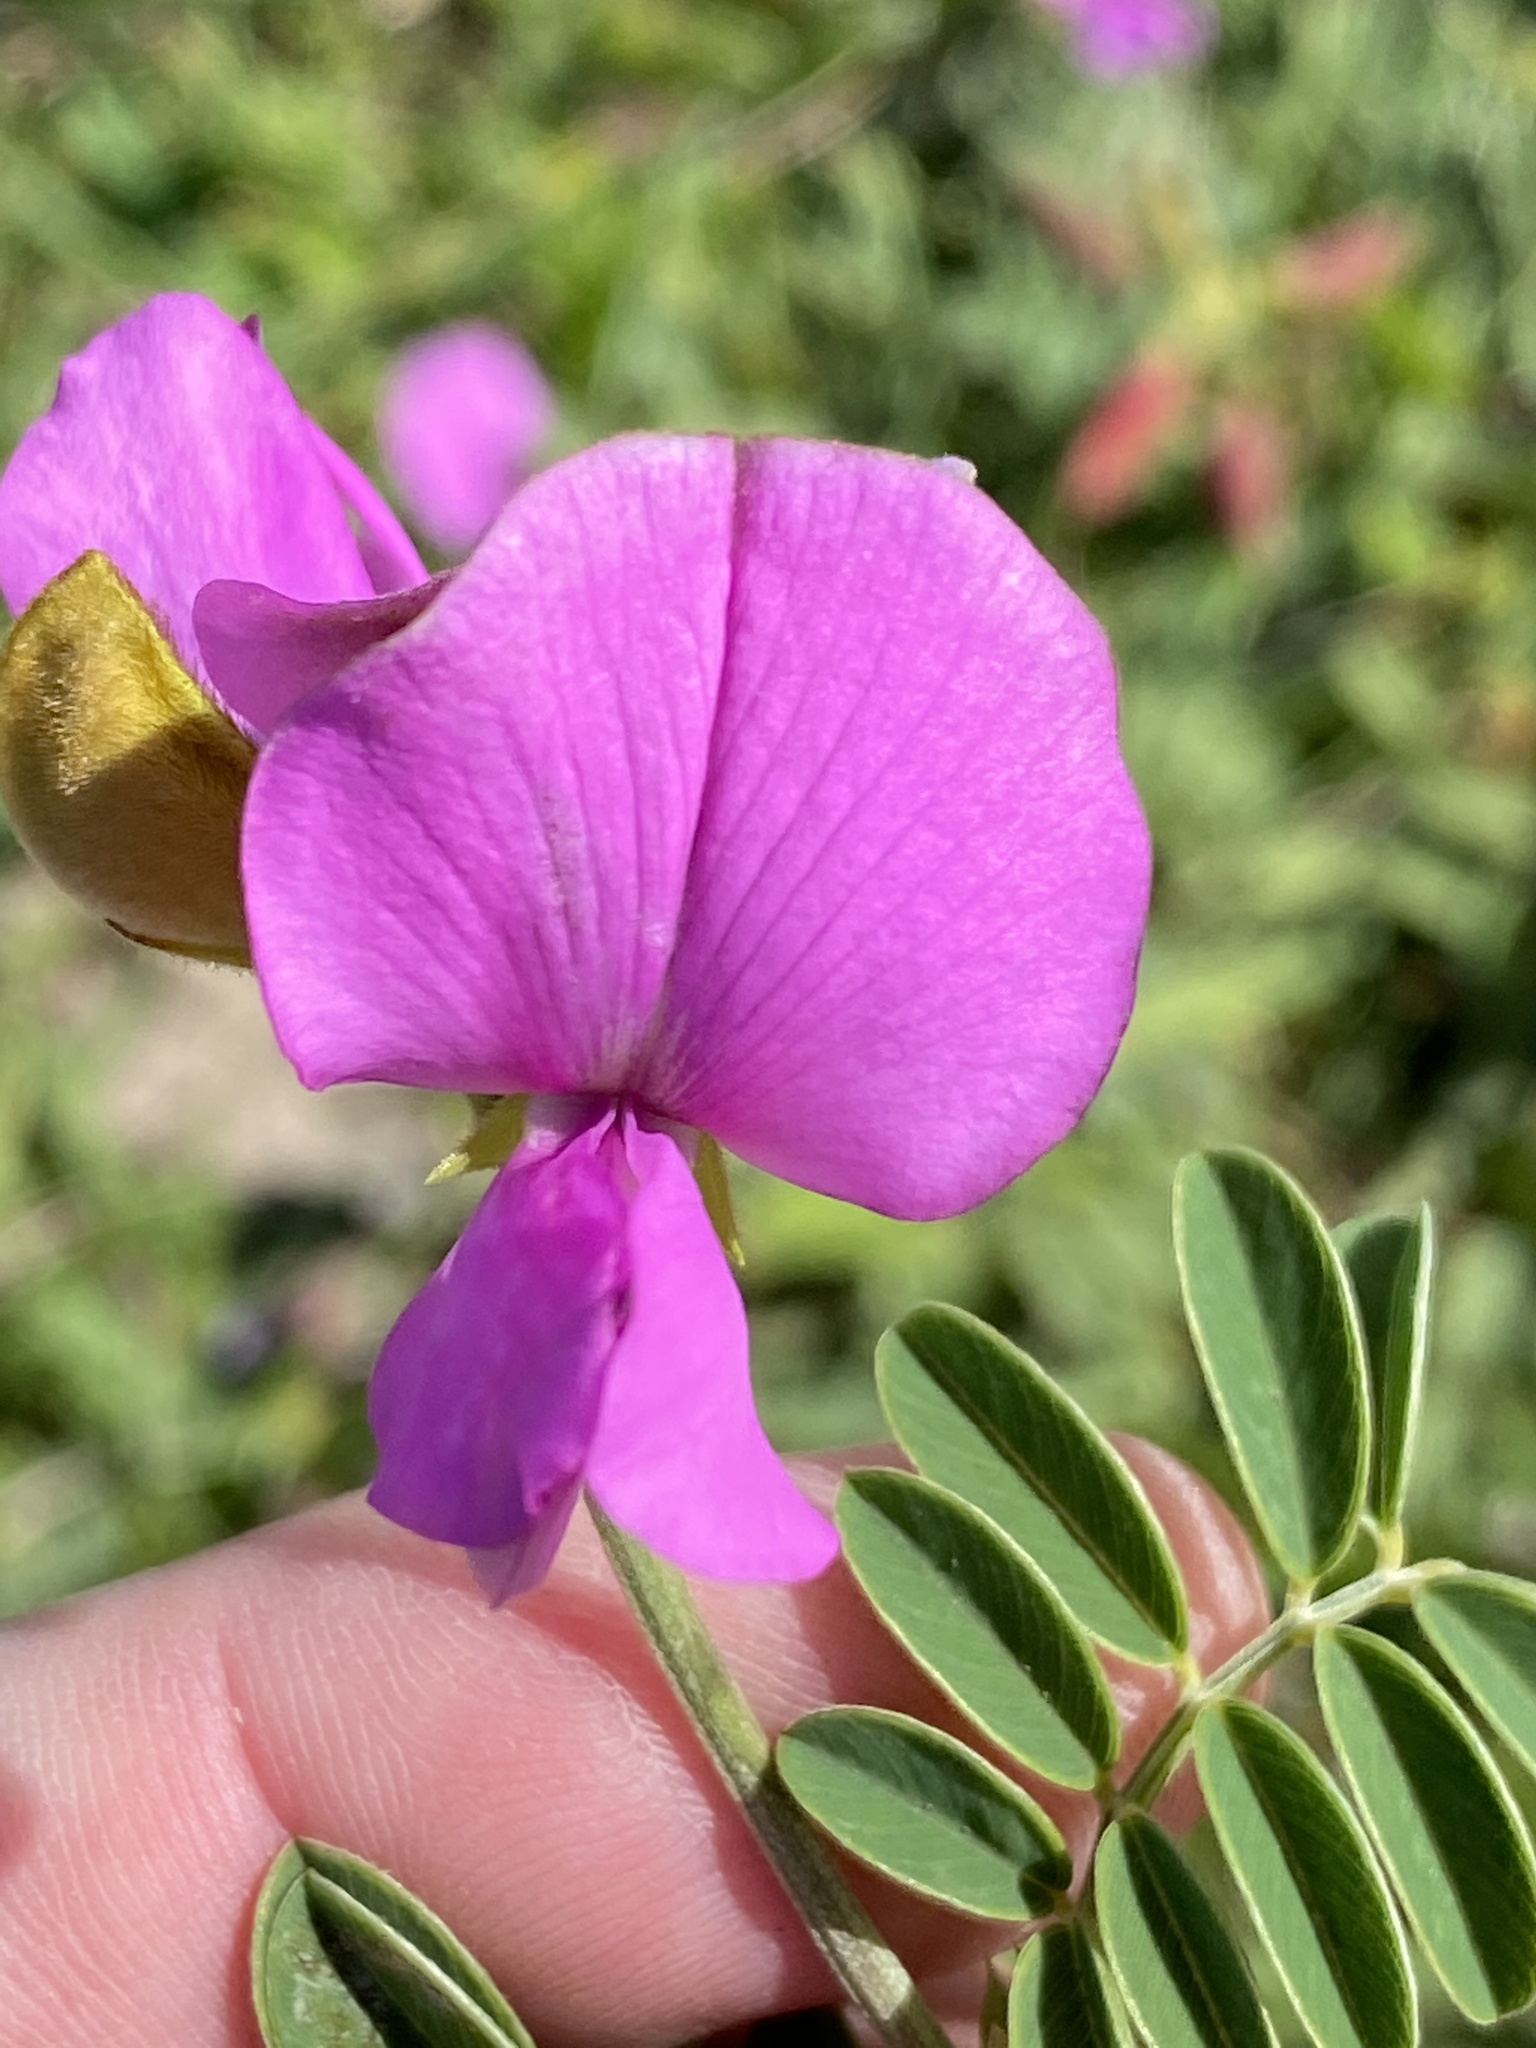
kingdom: Plantae
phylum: Tracheophyta
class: Magnoliopsida
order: Fabales
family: Fabaceae
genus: Tephrosia
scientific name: Tephrosia capensis
